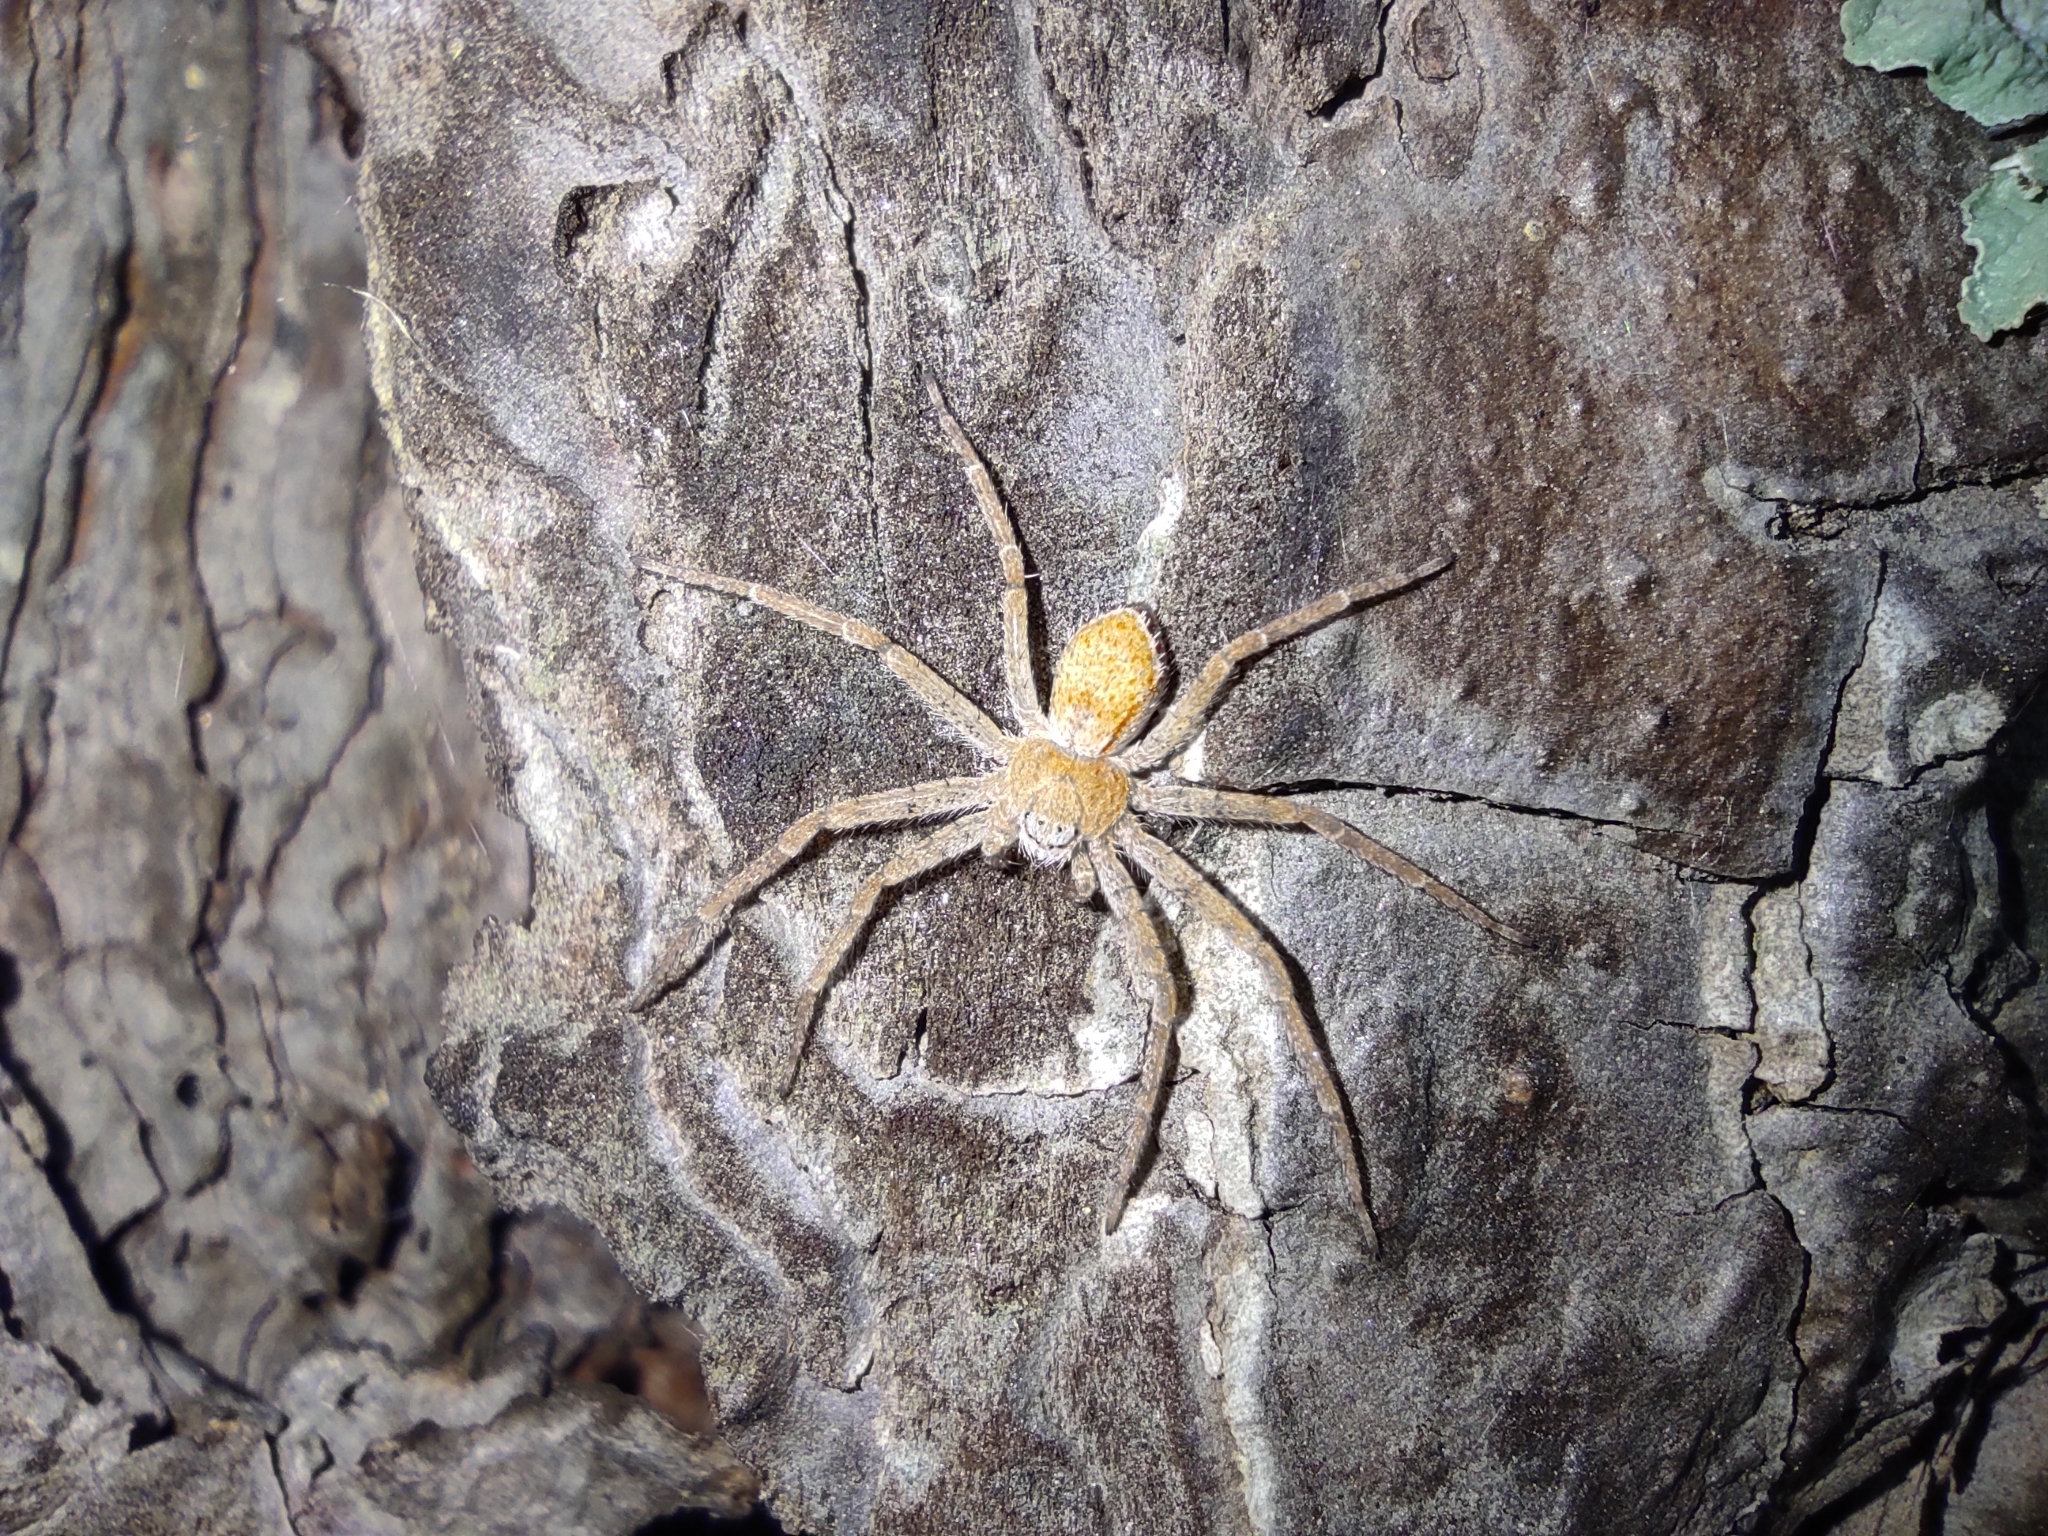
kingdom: Animalia
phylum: Arthropoda
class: Arachnida
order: Araneae
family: Philodromidae
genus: Philodromus
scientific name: Philodromus fuscomarginatus
